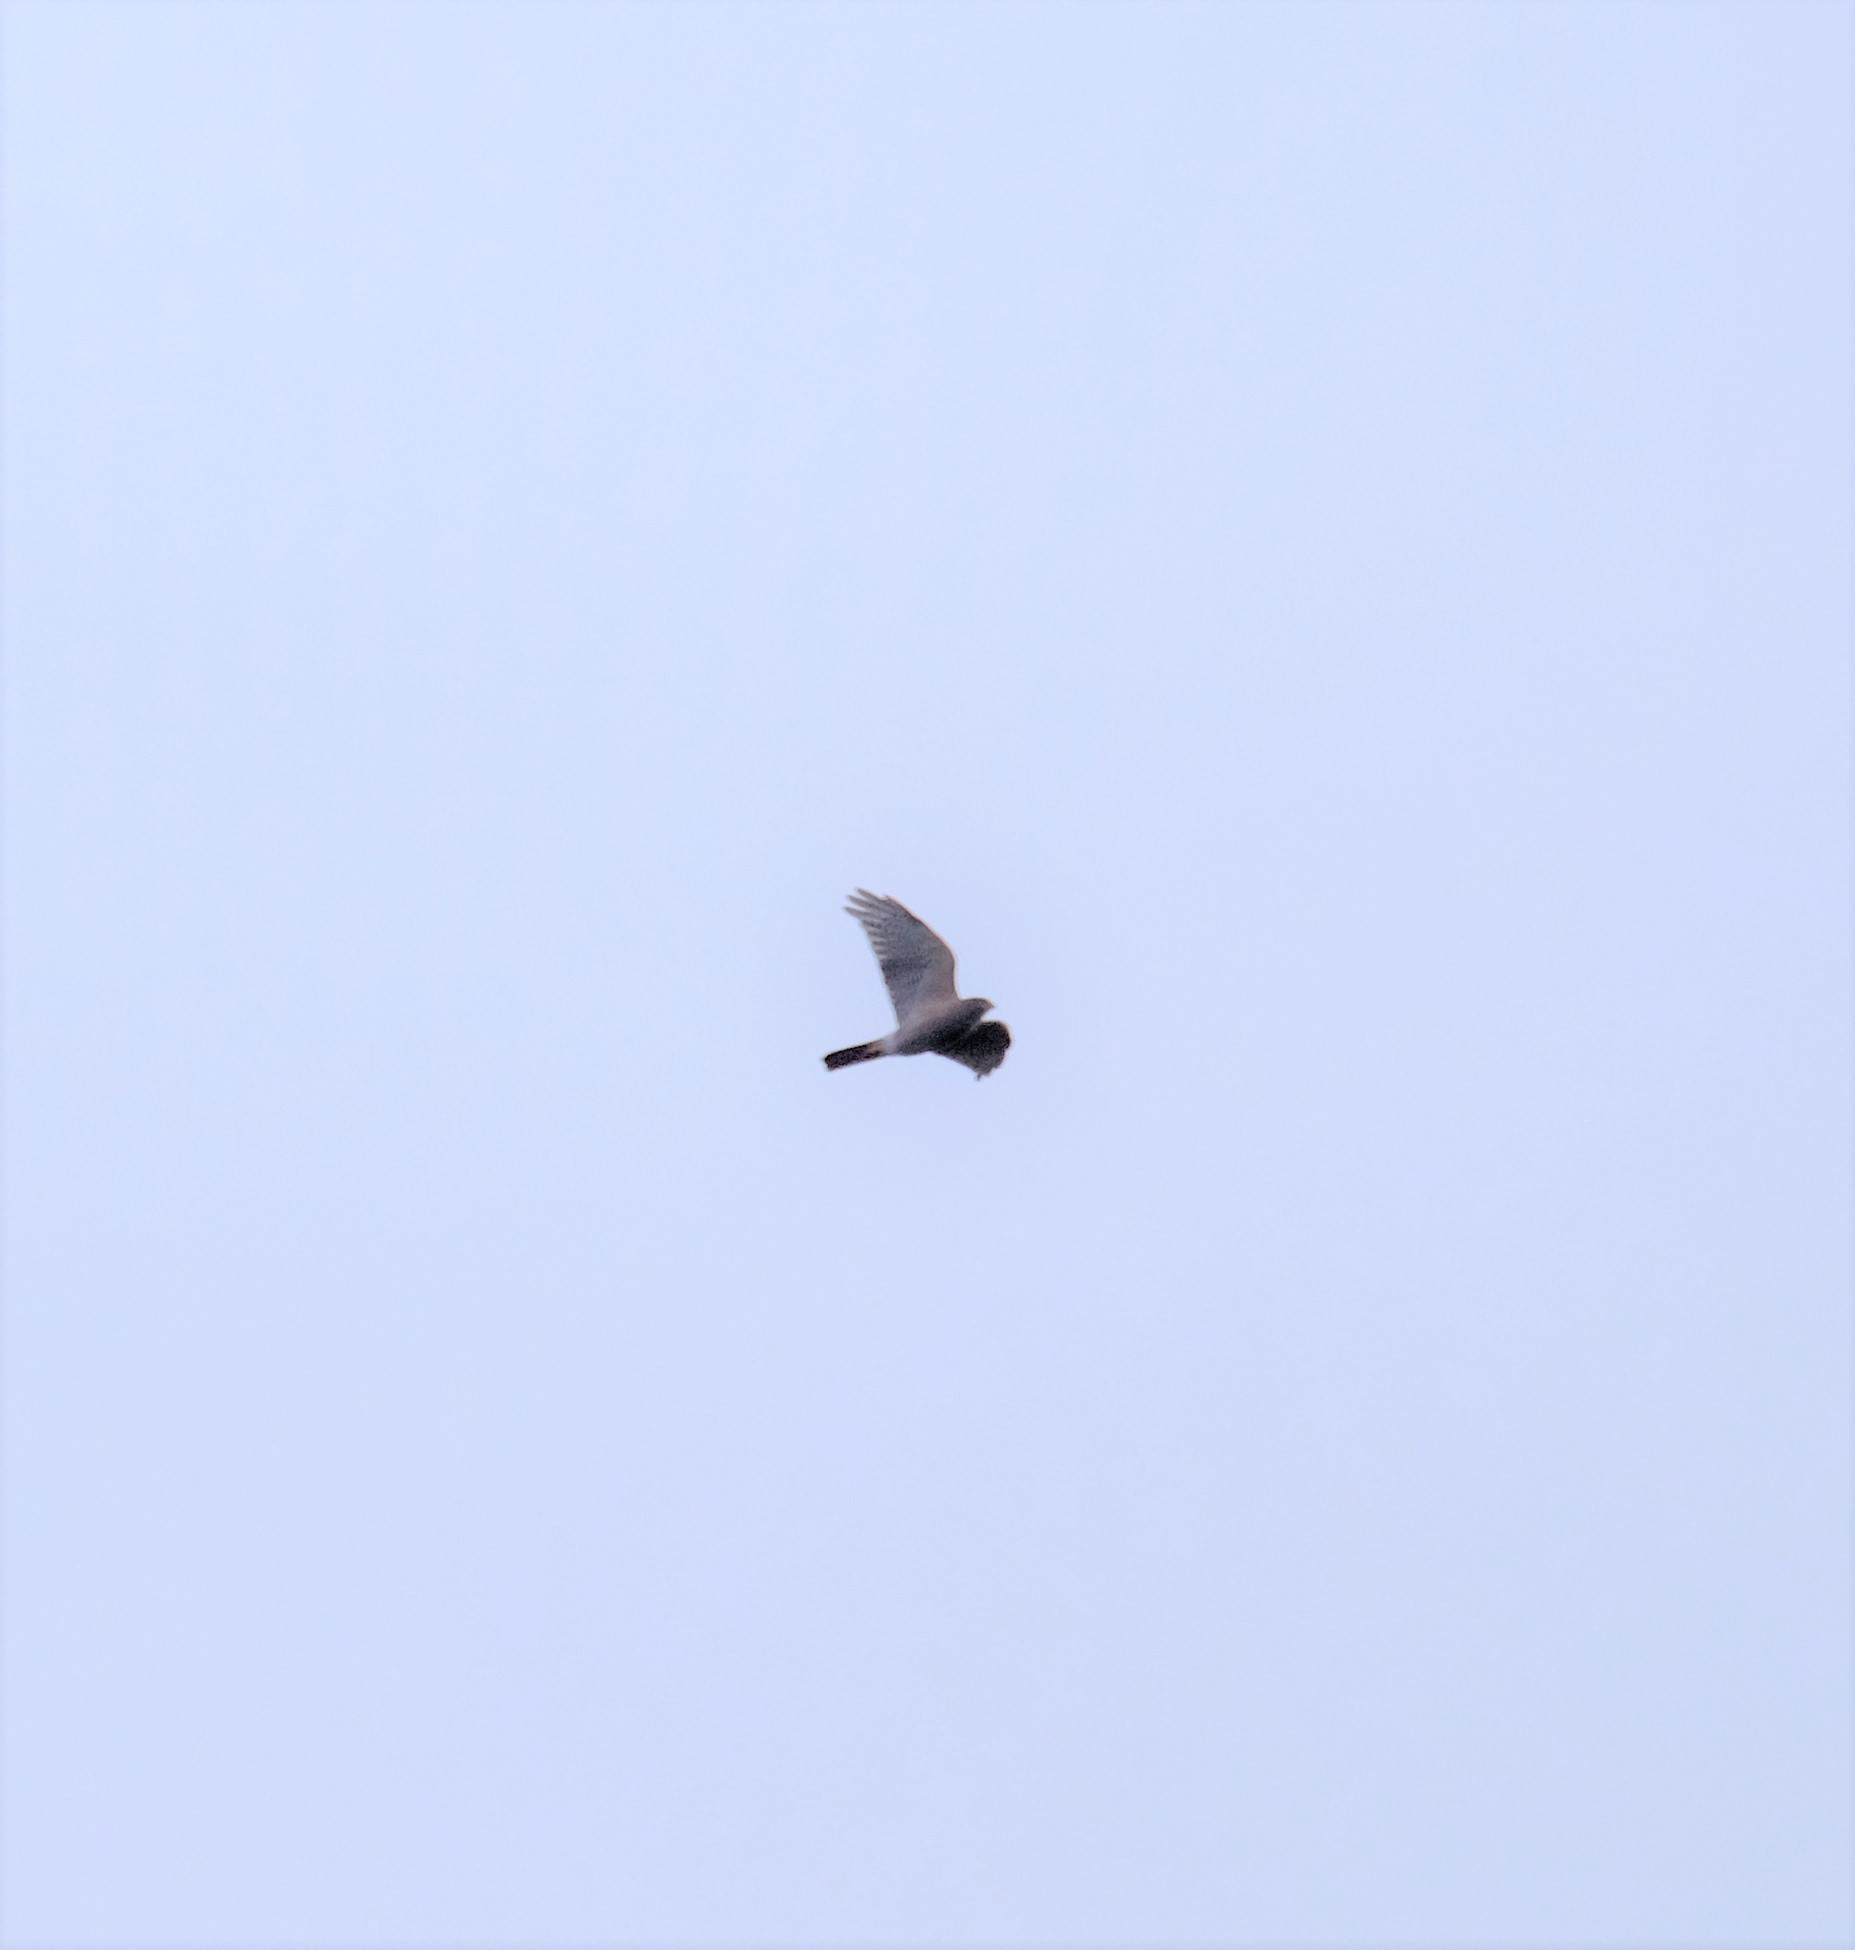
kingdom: Animalia
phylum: Chordata
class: Aves
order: Accipitriformes
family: Accipitridae
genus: Accipiter
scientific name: Accipiter cirrocephalus
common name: Collared sparrowhawk
